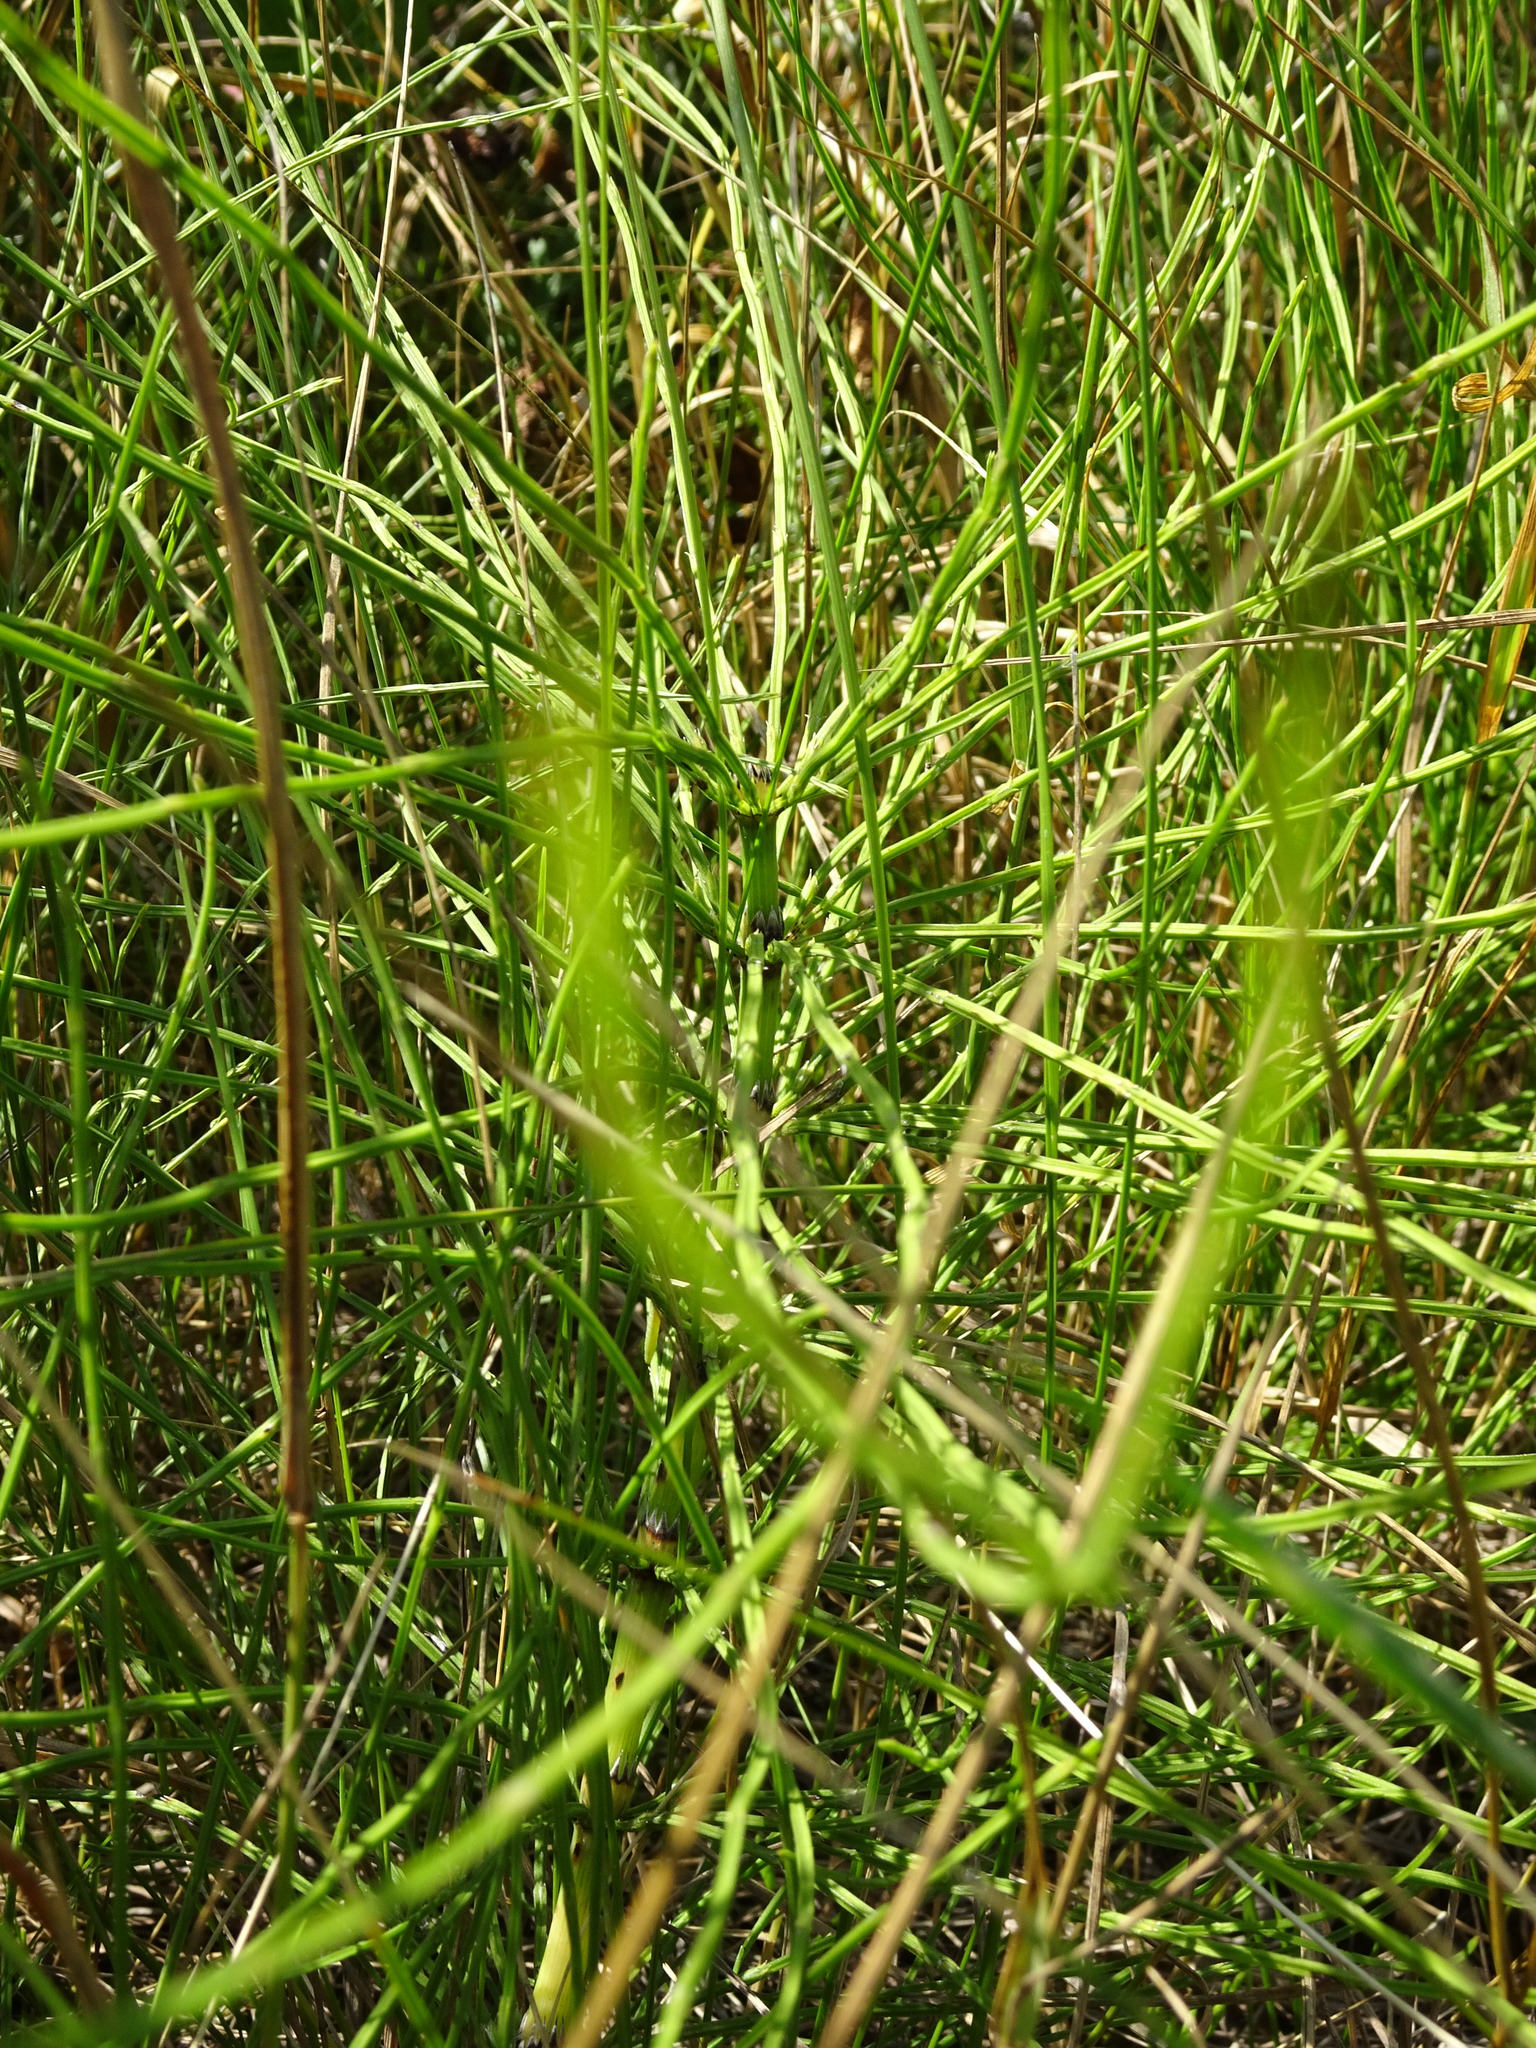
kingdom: Plantae
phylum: Tracheophyta
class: Polypodiopsida
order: Equisetales
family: Equisetaceae
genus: Equisetum
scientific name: Equisetum arvense
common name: Field horsetail
